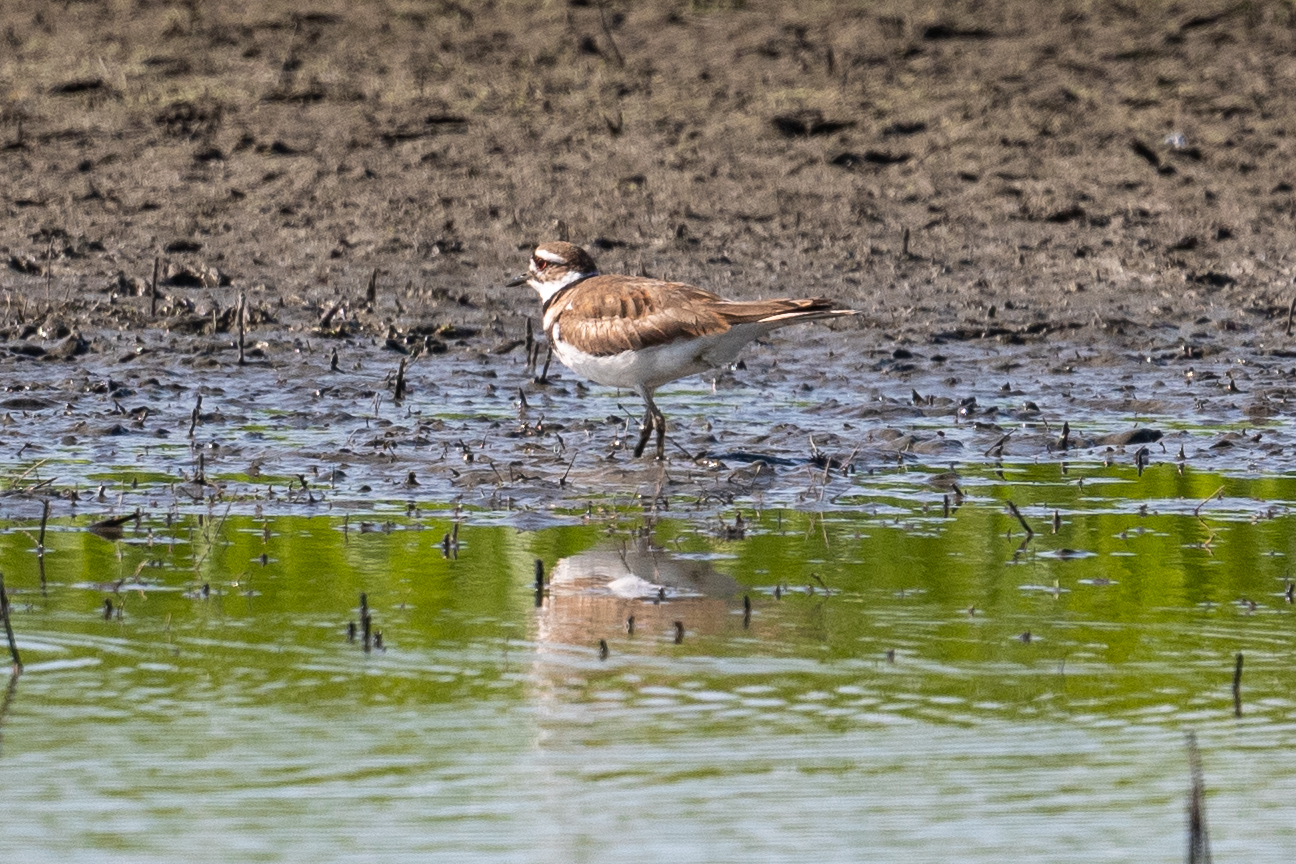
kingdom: Animalia
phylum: Chordata
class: Aves
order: Charadriiformes
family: Charadriidae
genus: Charadrius
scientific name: Charadrius vociferus
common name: Killdeer
